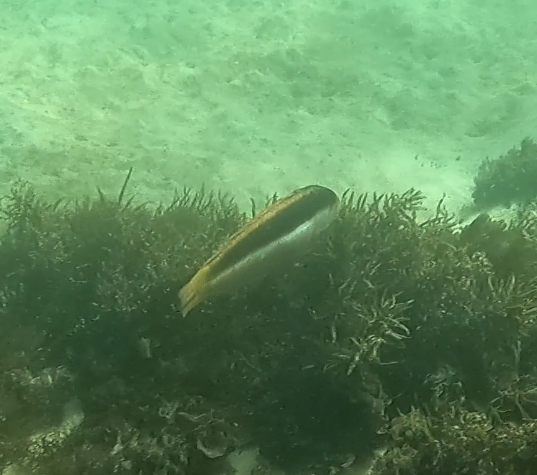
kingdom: Animalia
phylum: Chordata
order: Perciformes
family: Labridae
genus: Ophthalmolepis
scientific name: Ophthalmolepis lineolata
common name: Maori wrasse
